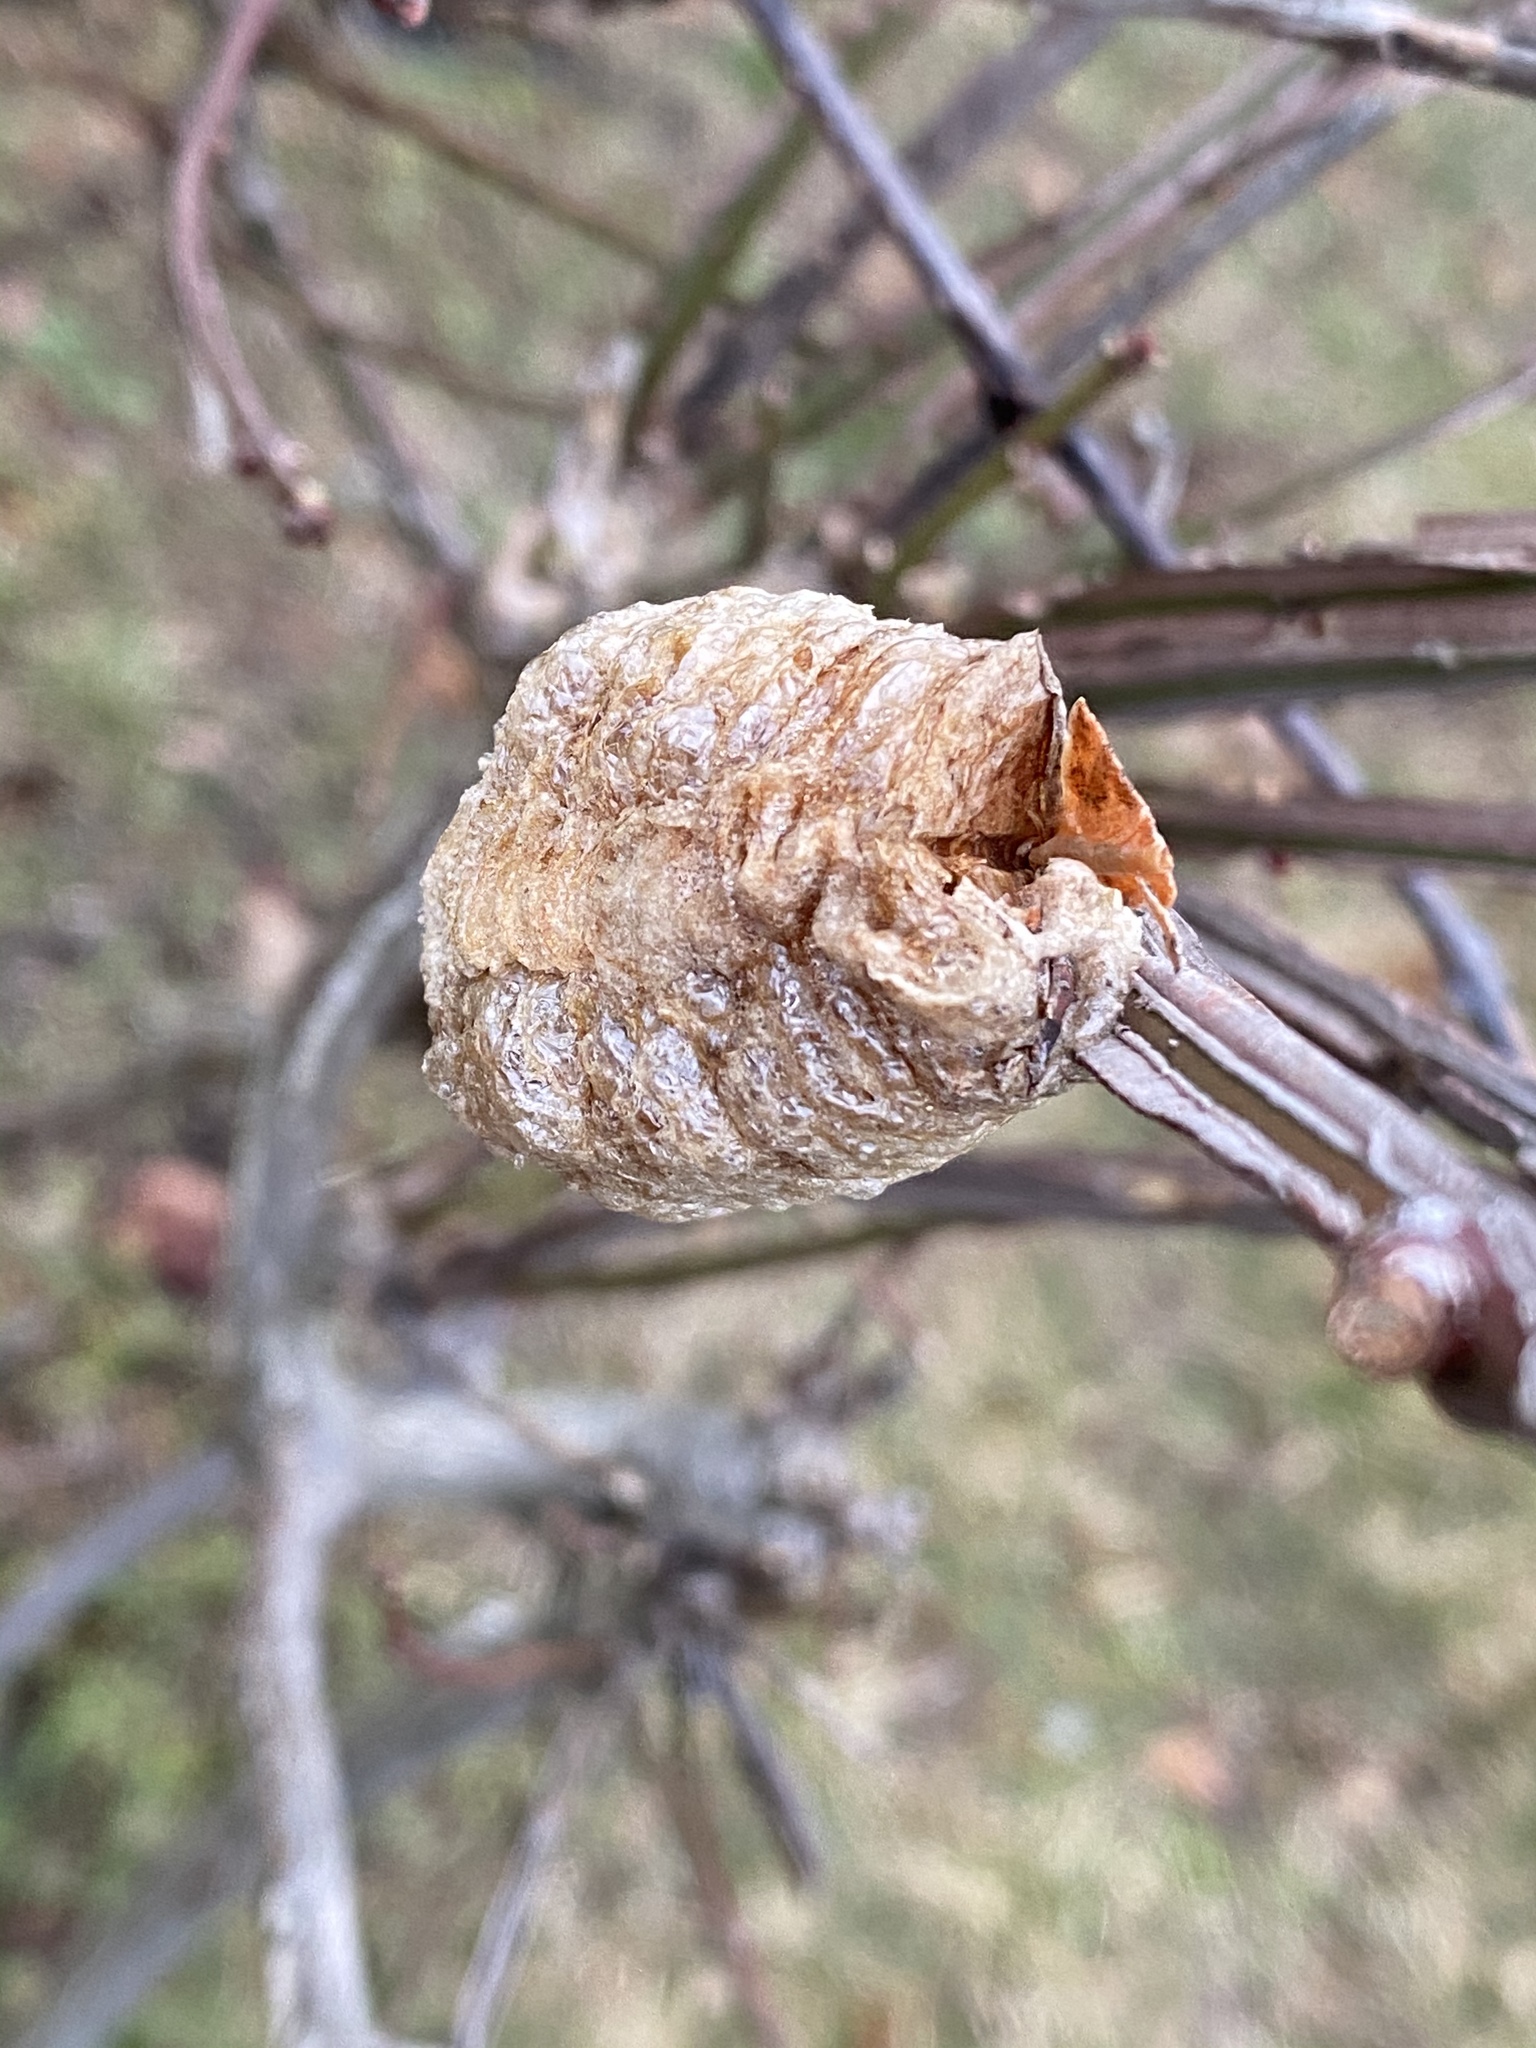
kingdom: Animalia
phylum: Arthropoda
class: Insecta
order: Mantodea
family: Mantidae
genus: Tenodera
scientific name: Tenodera sinensis
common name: Chinese mantis
